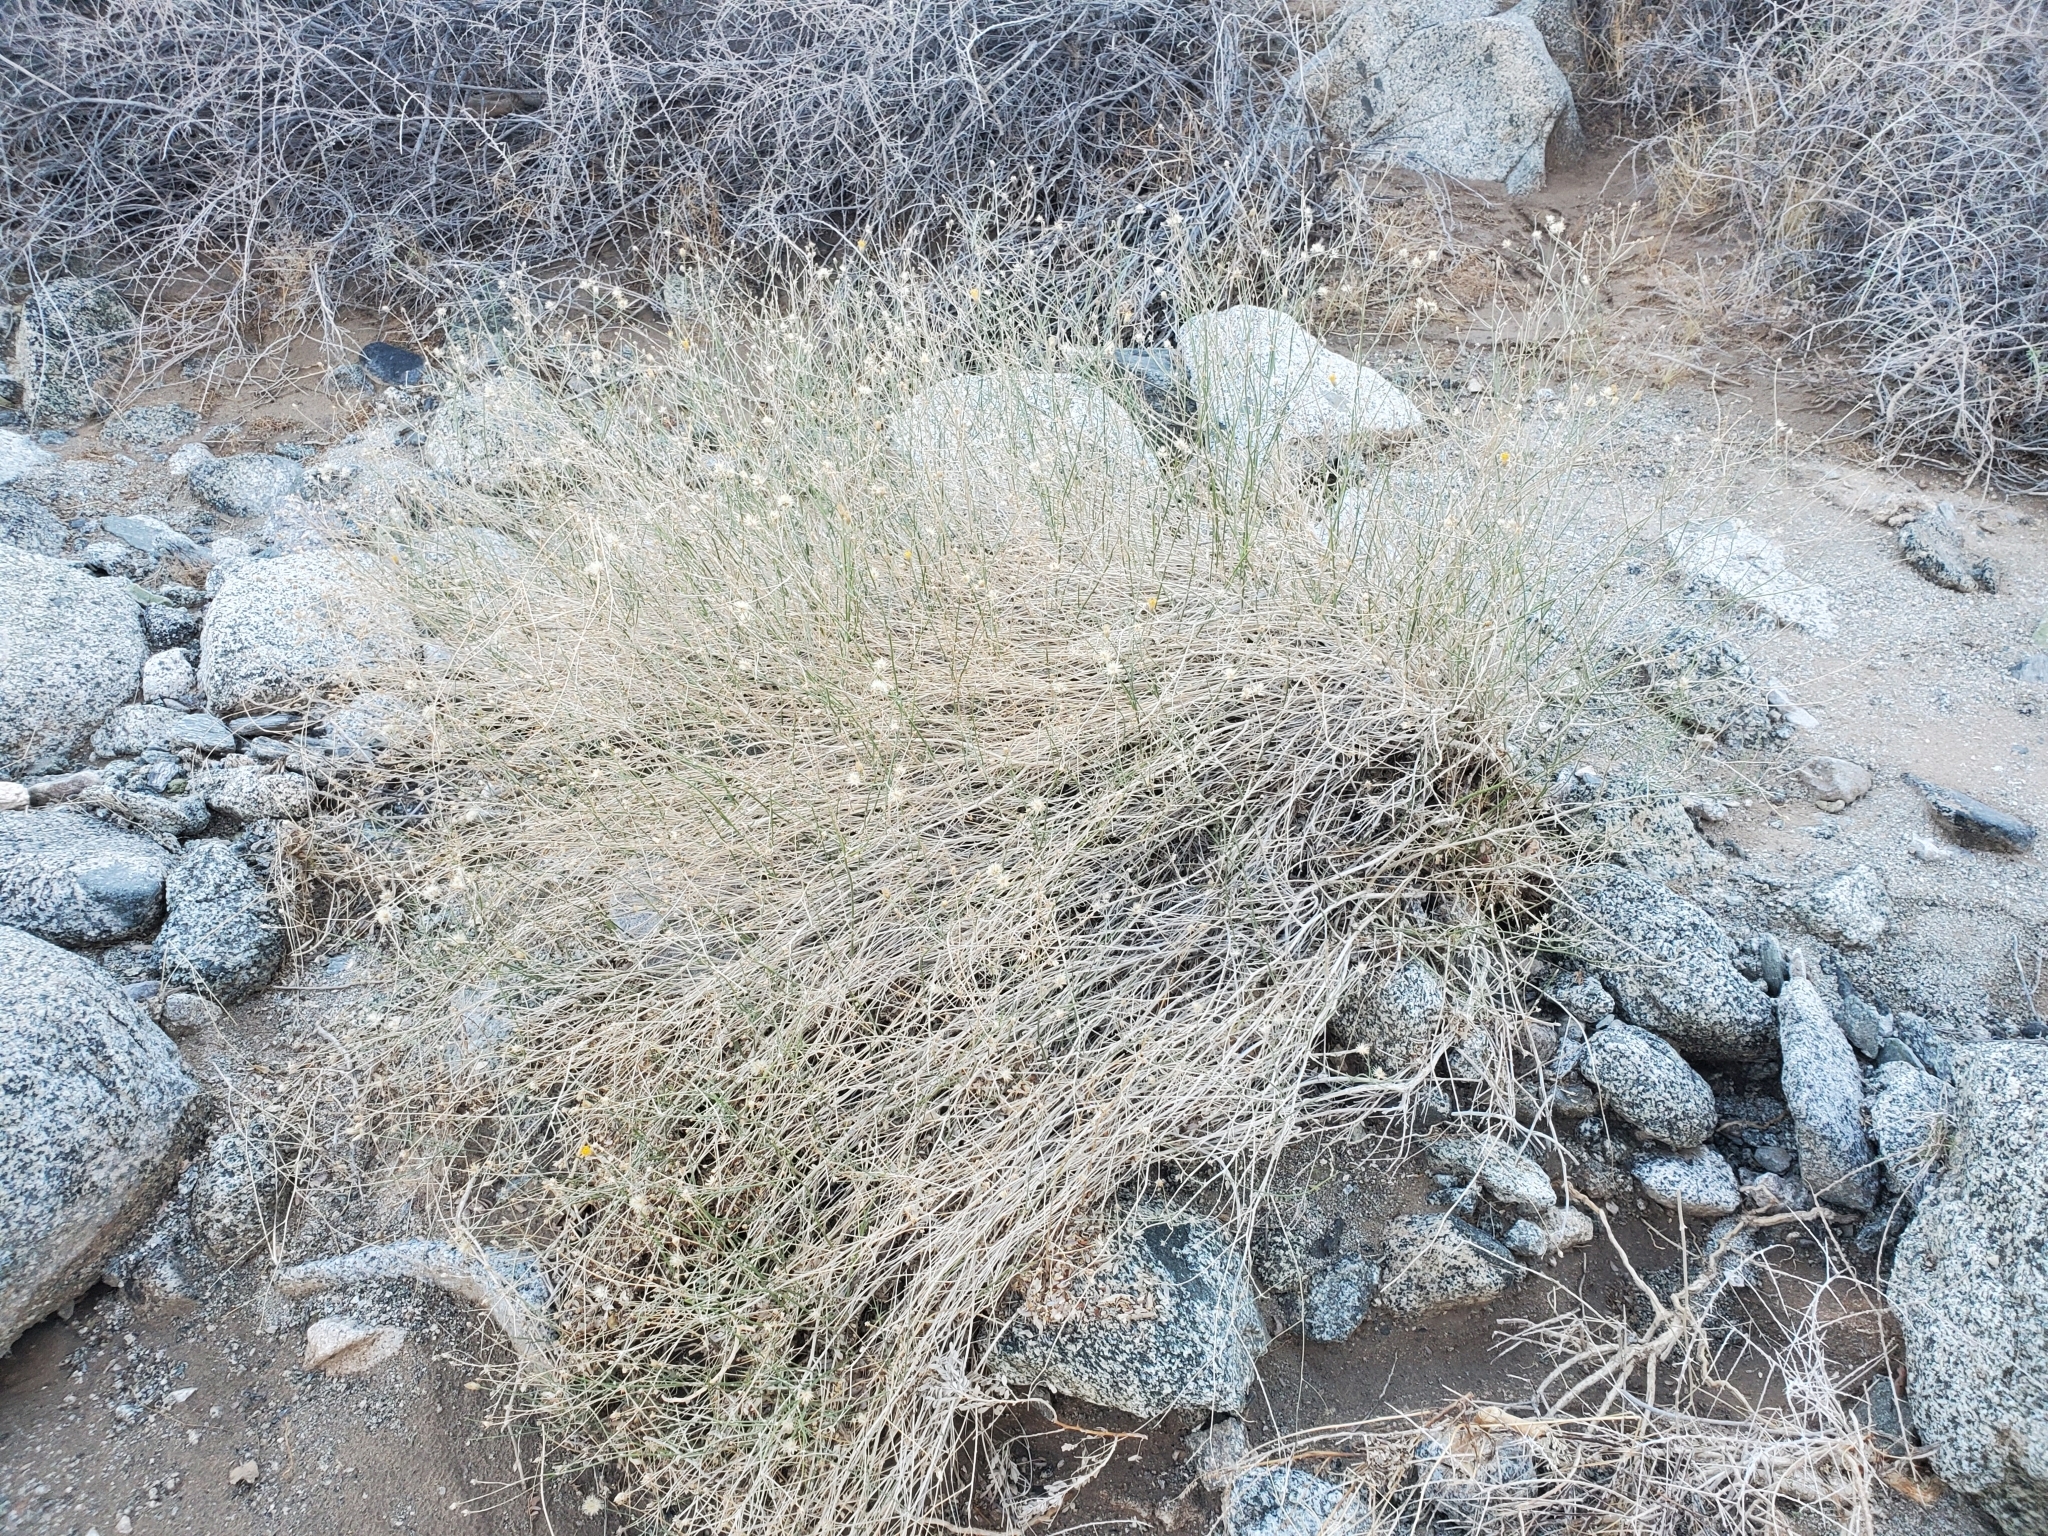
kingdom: Plantae
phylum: Tracheophyta
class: Magnoliopsida
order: Asterales
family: Asteraceae
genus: Bebbia
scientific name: Bebbia juncea
